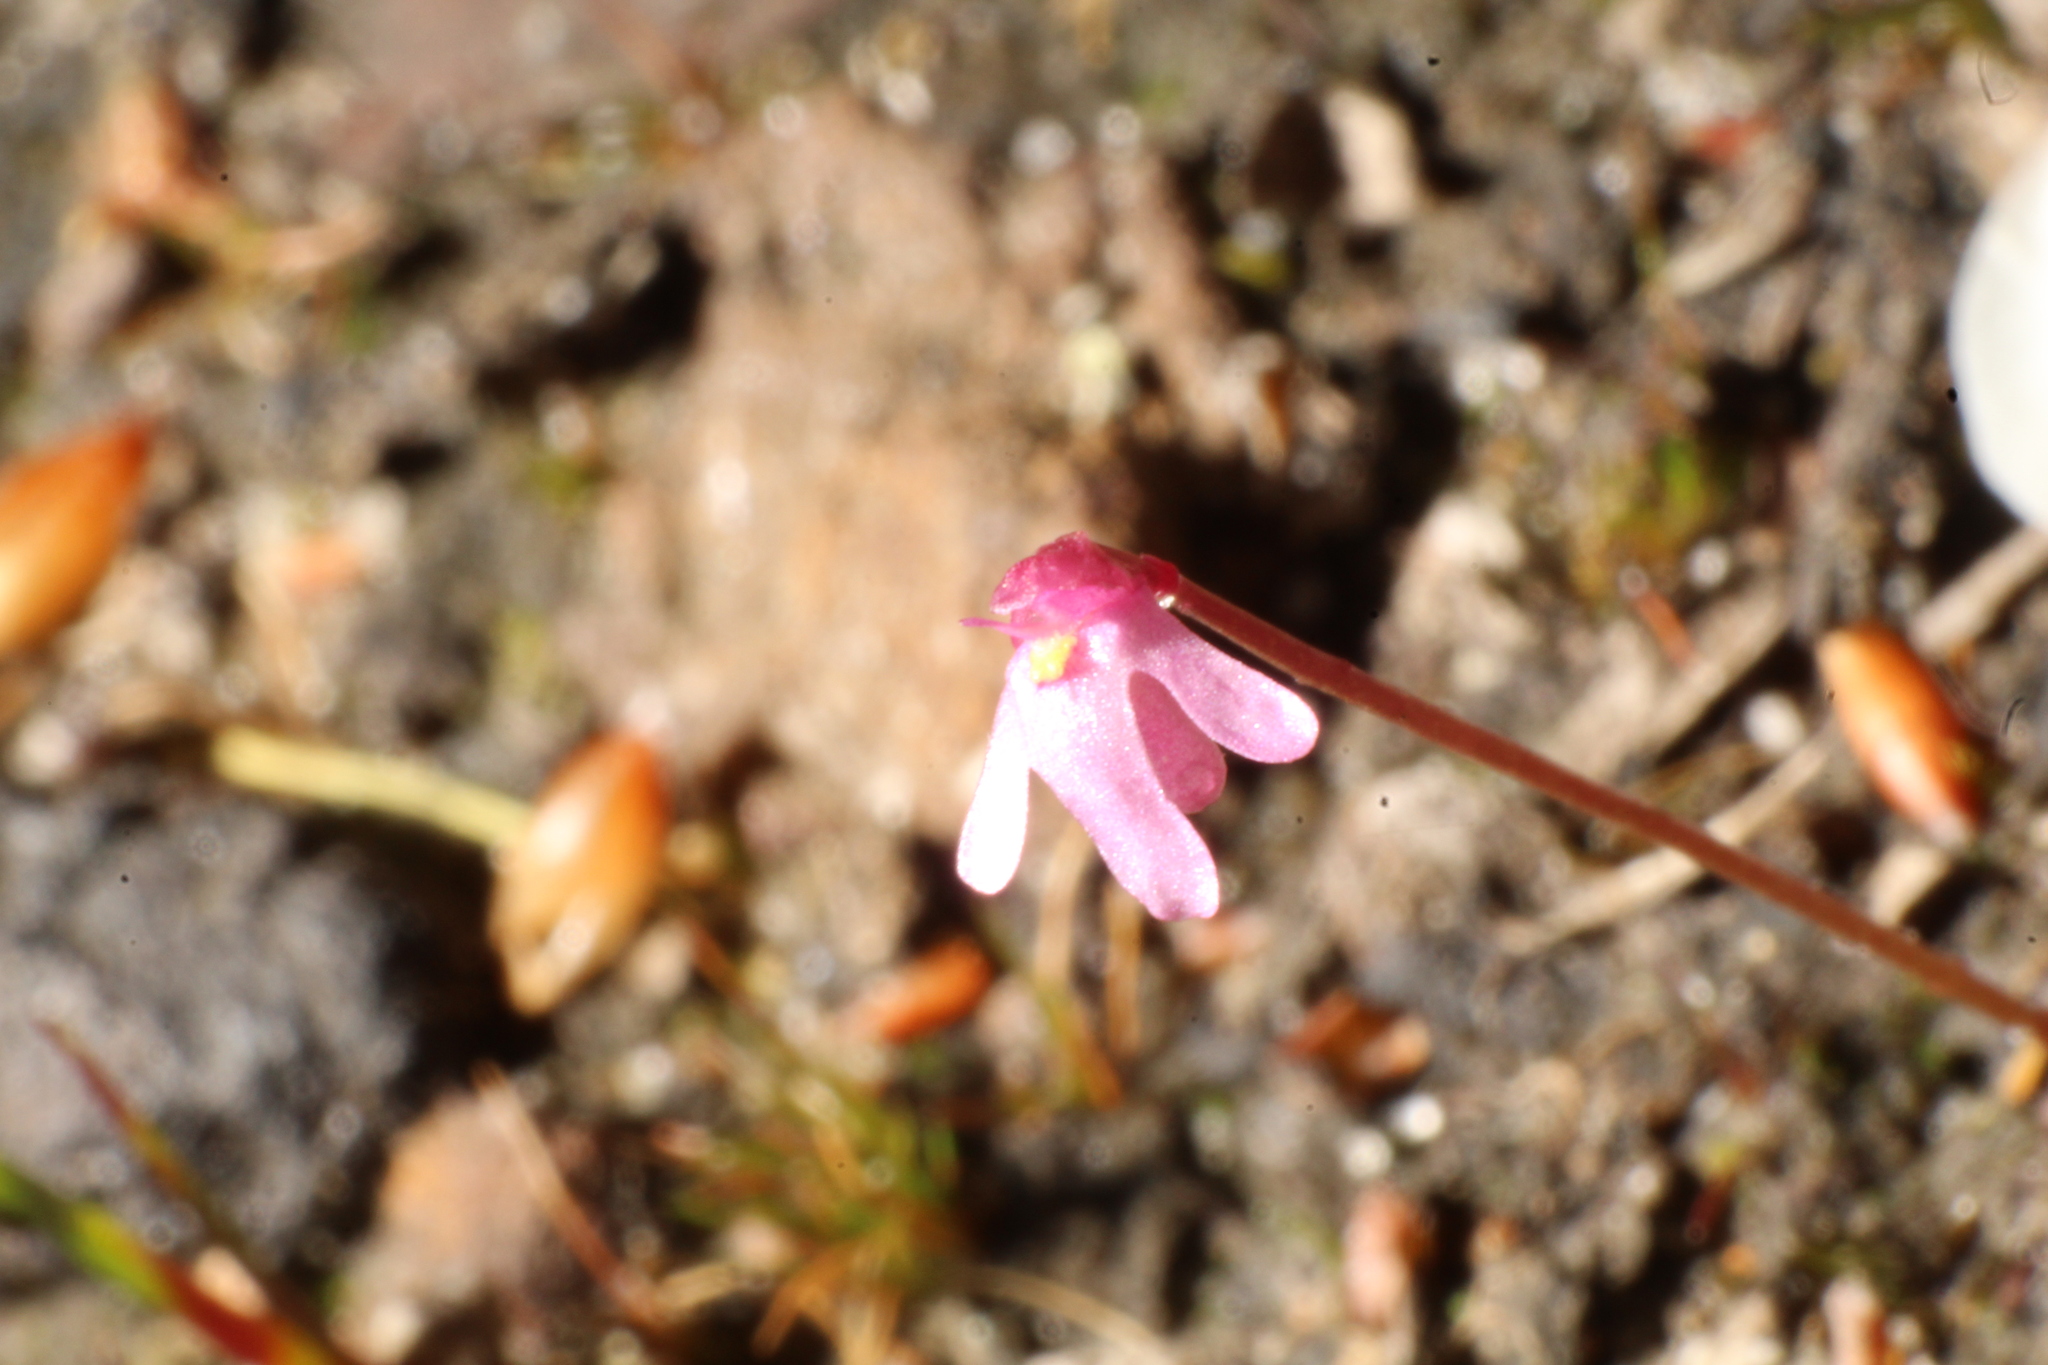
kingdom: Plantae
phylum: Tracheophyta
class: Magnoliopsida
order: Lamiales
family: Lentibulariaceae
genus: Utricularia
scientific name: Utricularia tenella
